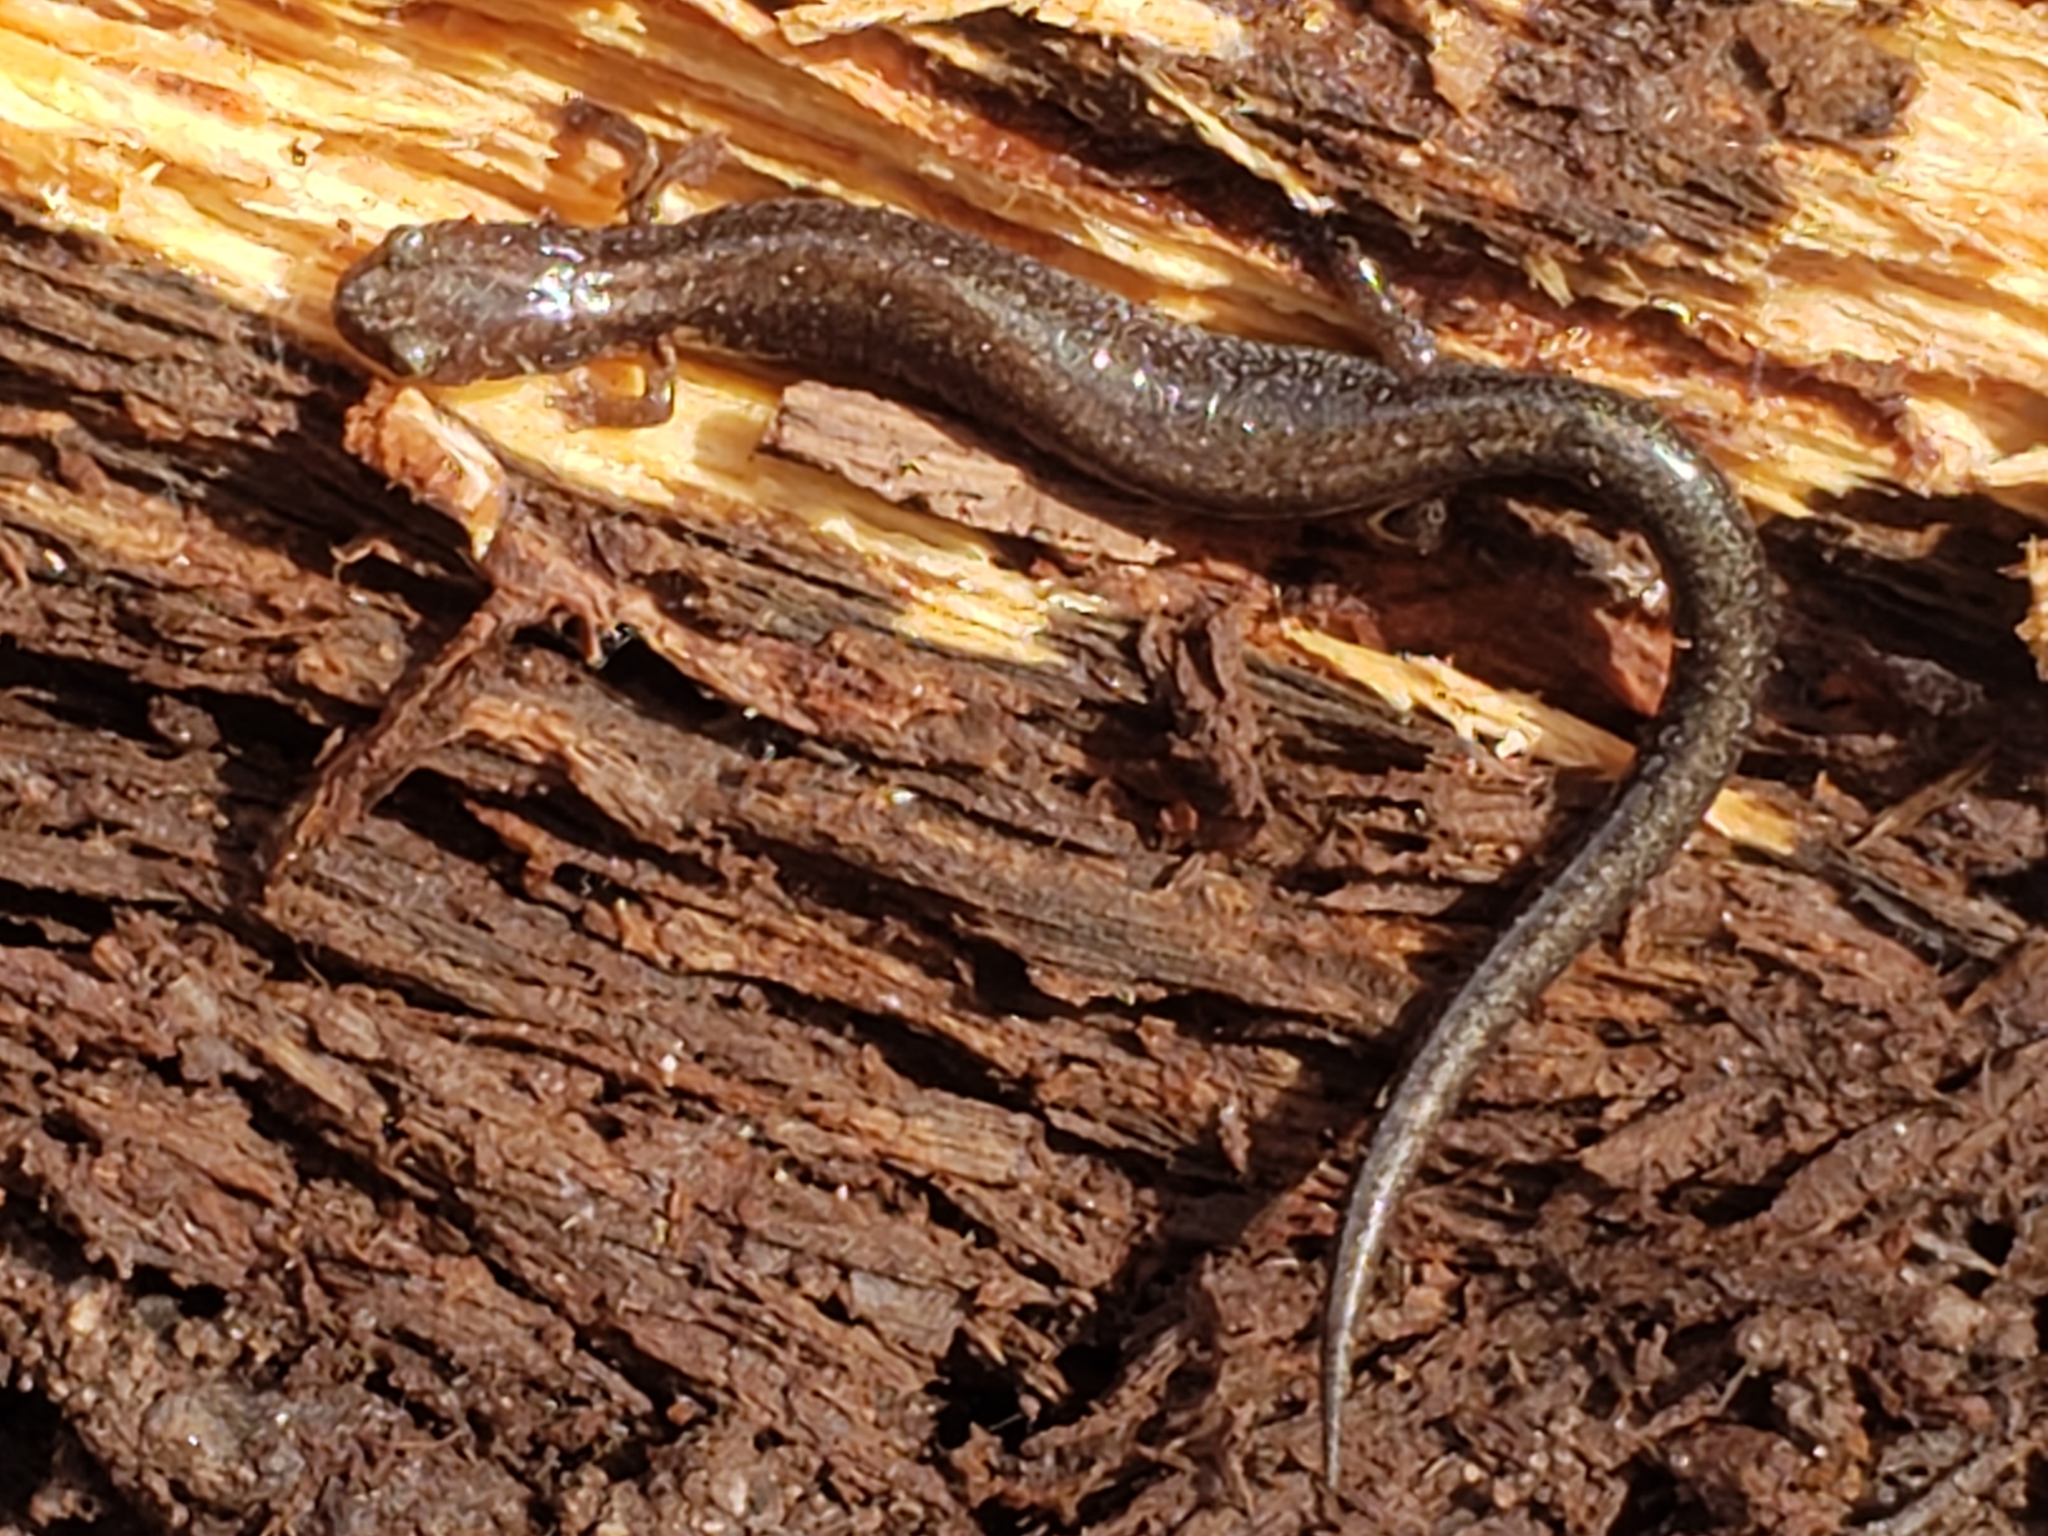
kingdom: Animalia
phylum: Chordata
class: Amphibia
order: Caudata
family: Plethodontidae
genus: Plethodon
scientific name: Plethodon cinereus
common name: Redback salamander
